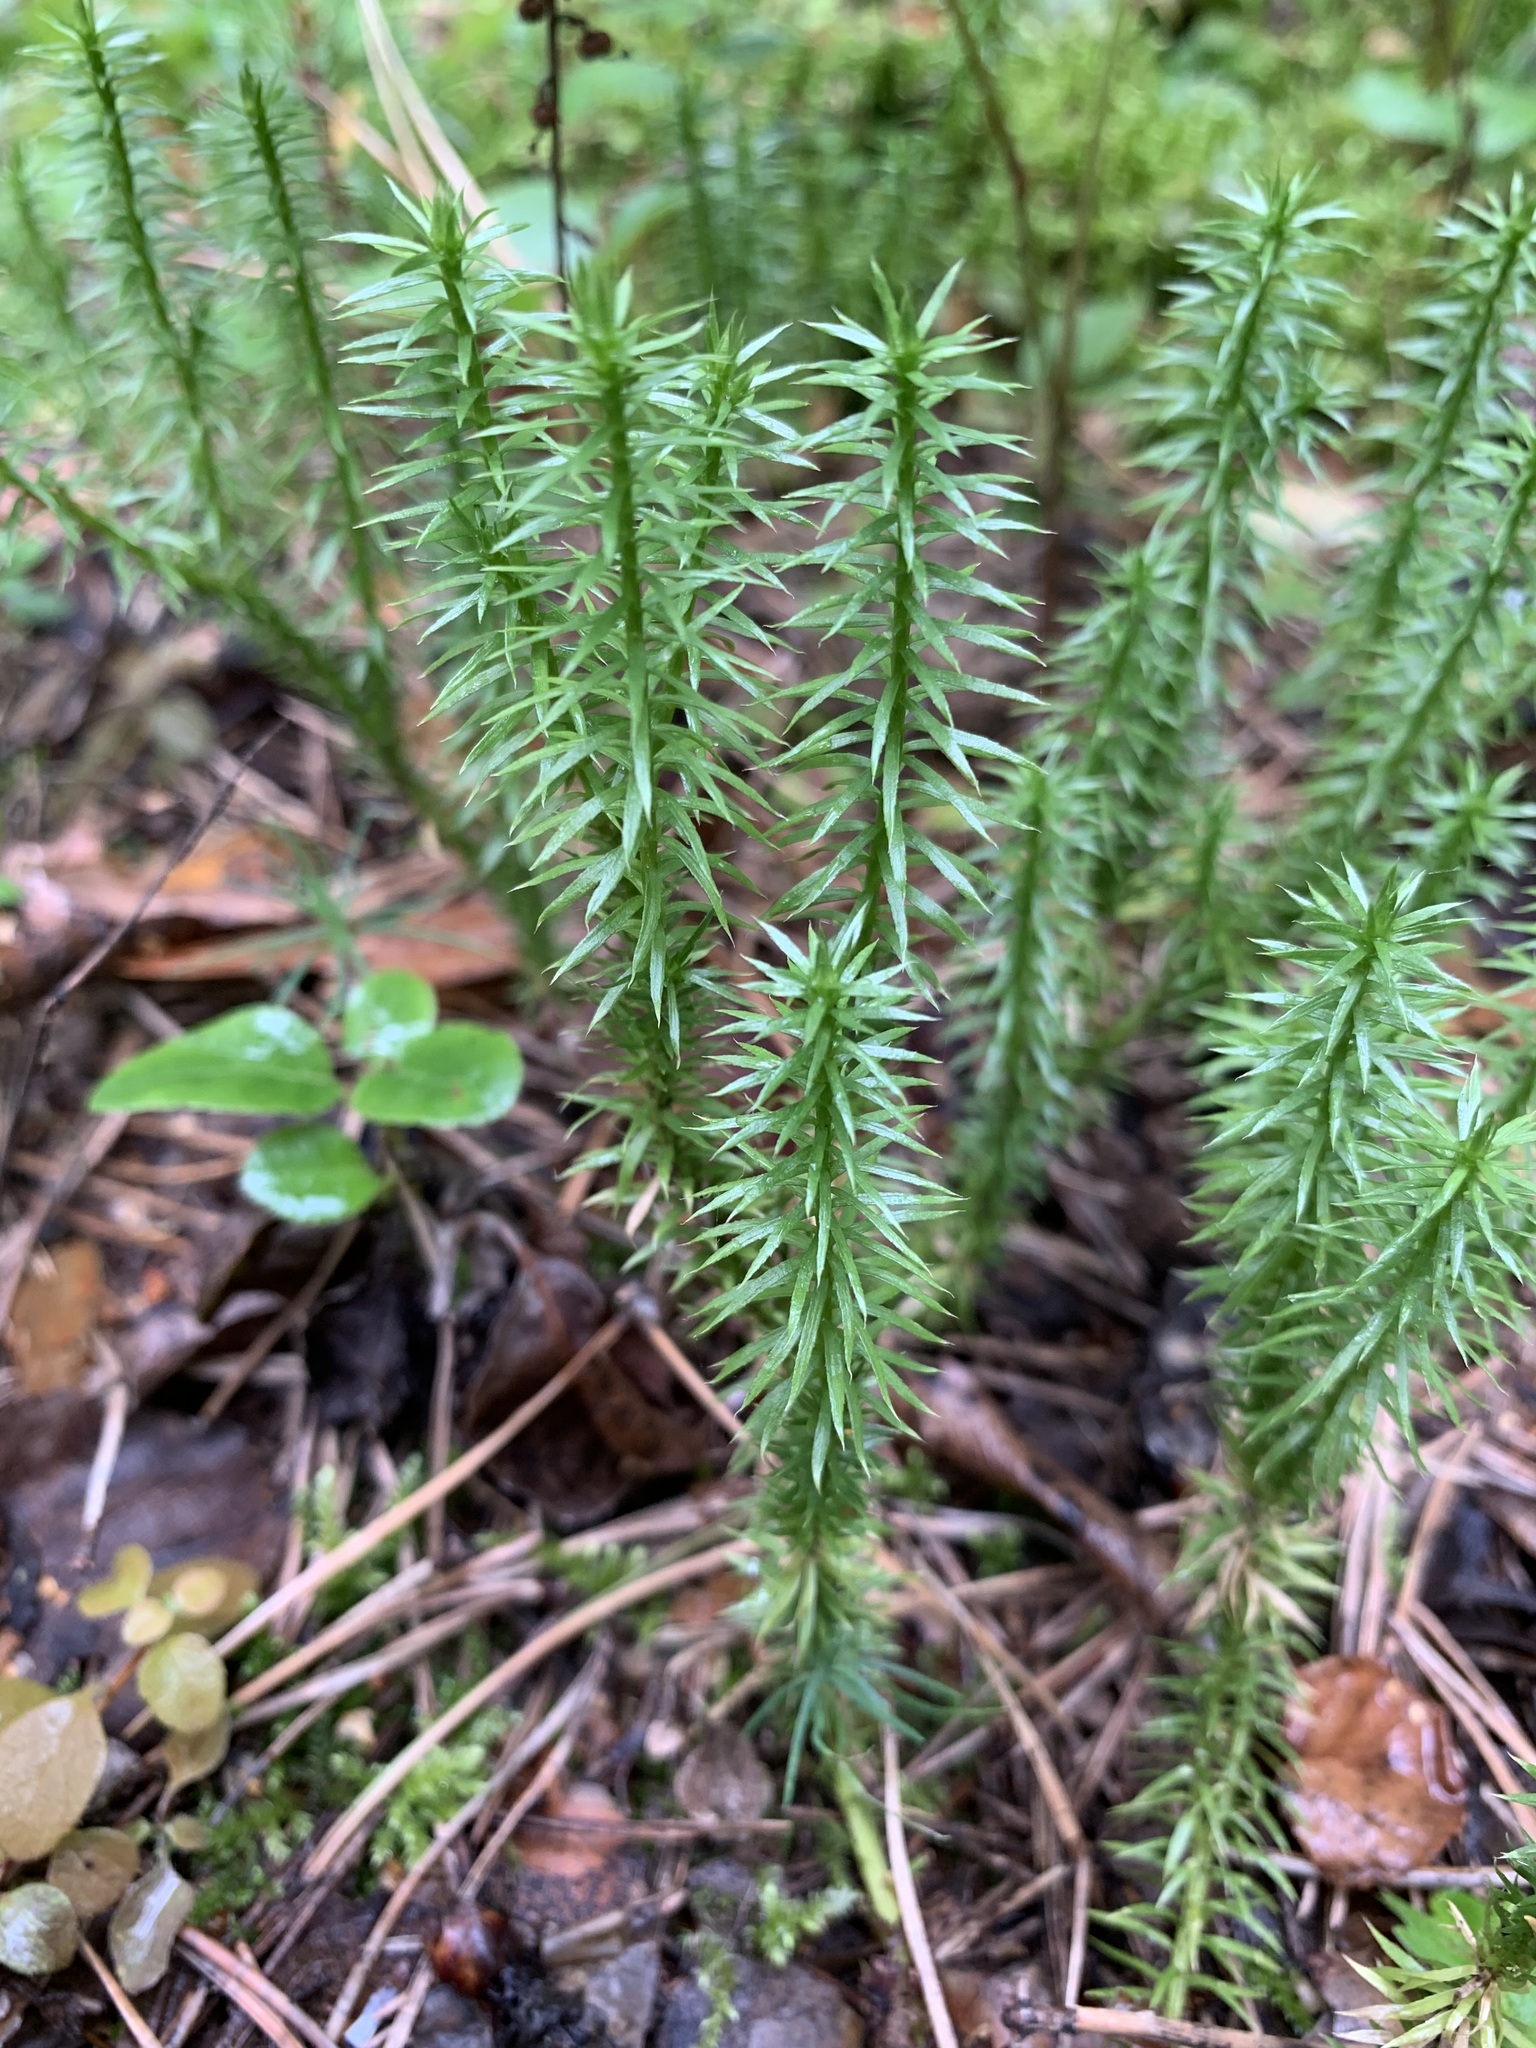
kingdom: Plantae
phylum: Tracheophyta
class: Lycopodiopsida
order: Lycopodiales
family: Lycopodiaceae
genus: Spinulum
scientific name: Spinulum annotinum
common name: Interrupted club-moss
